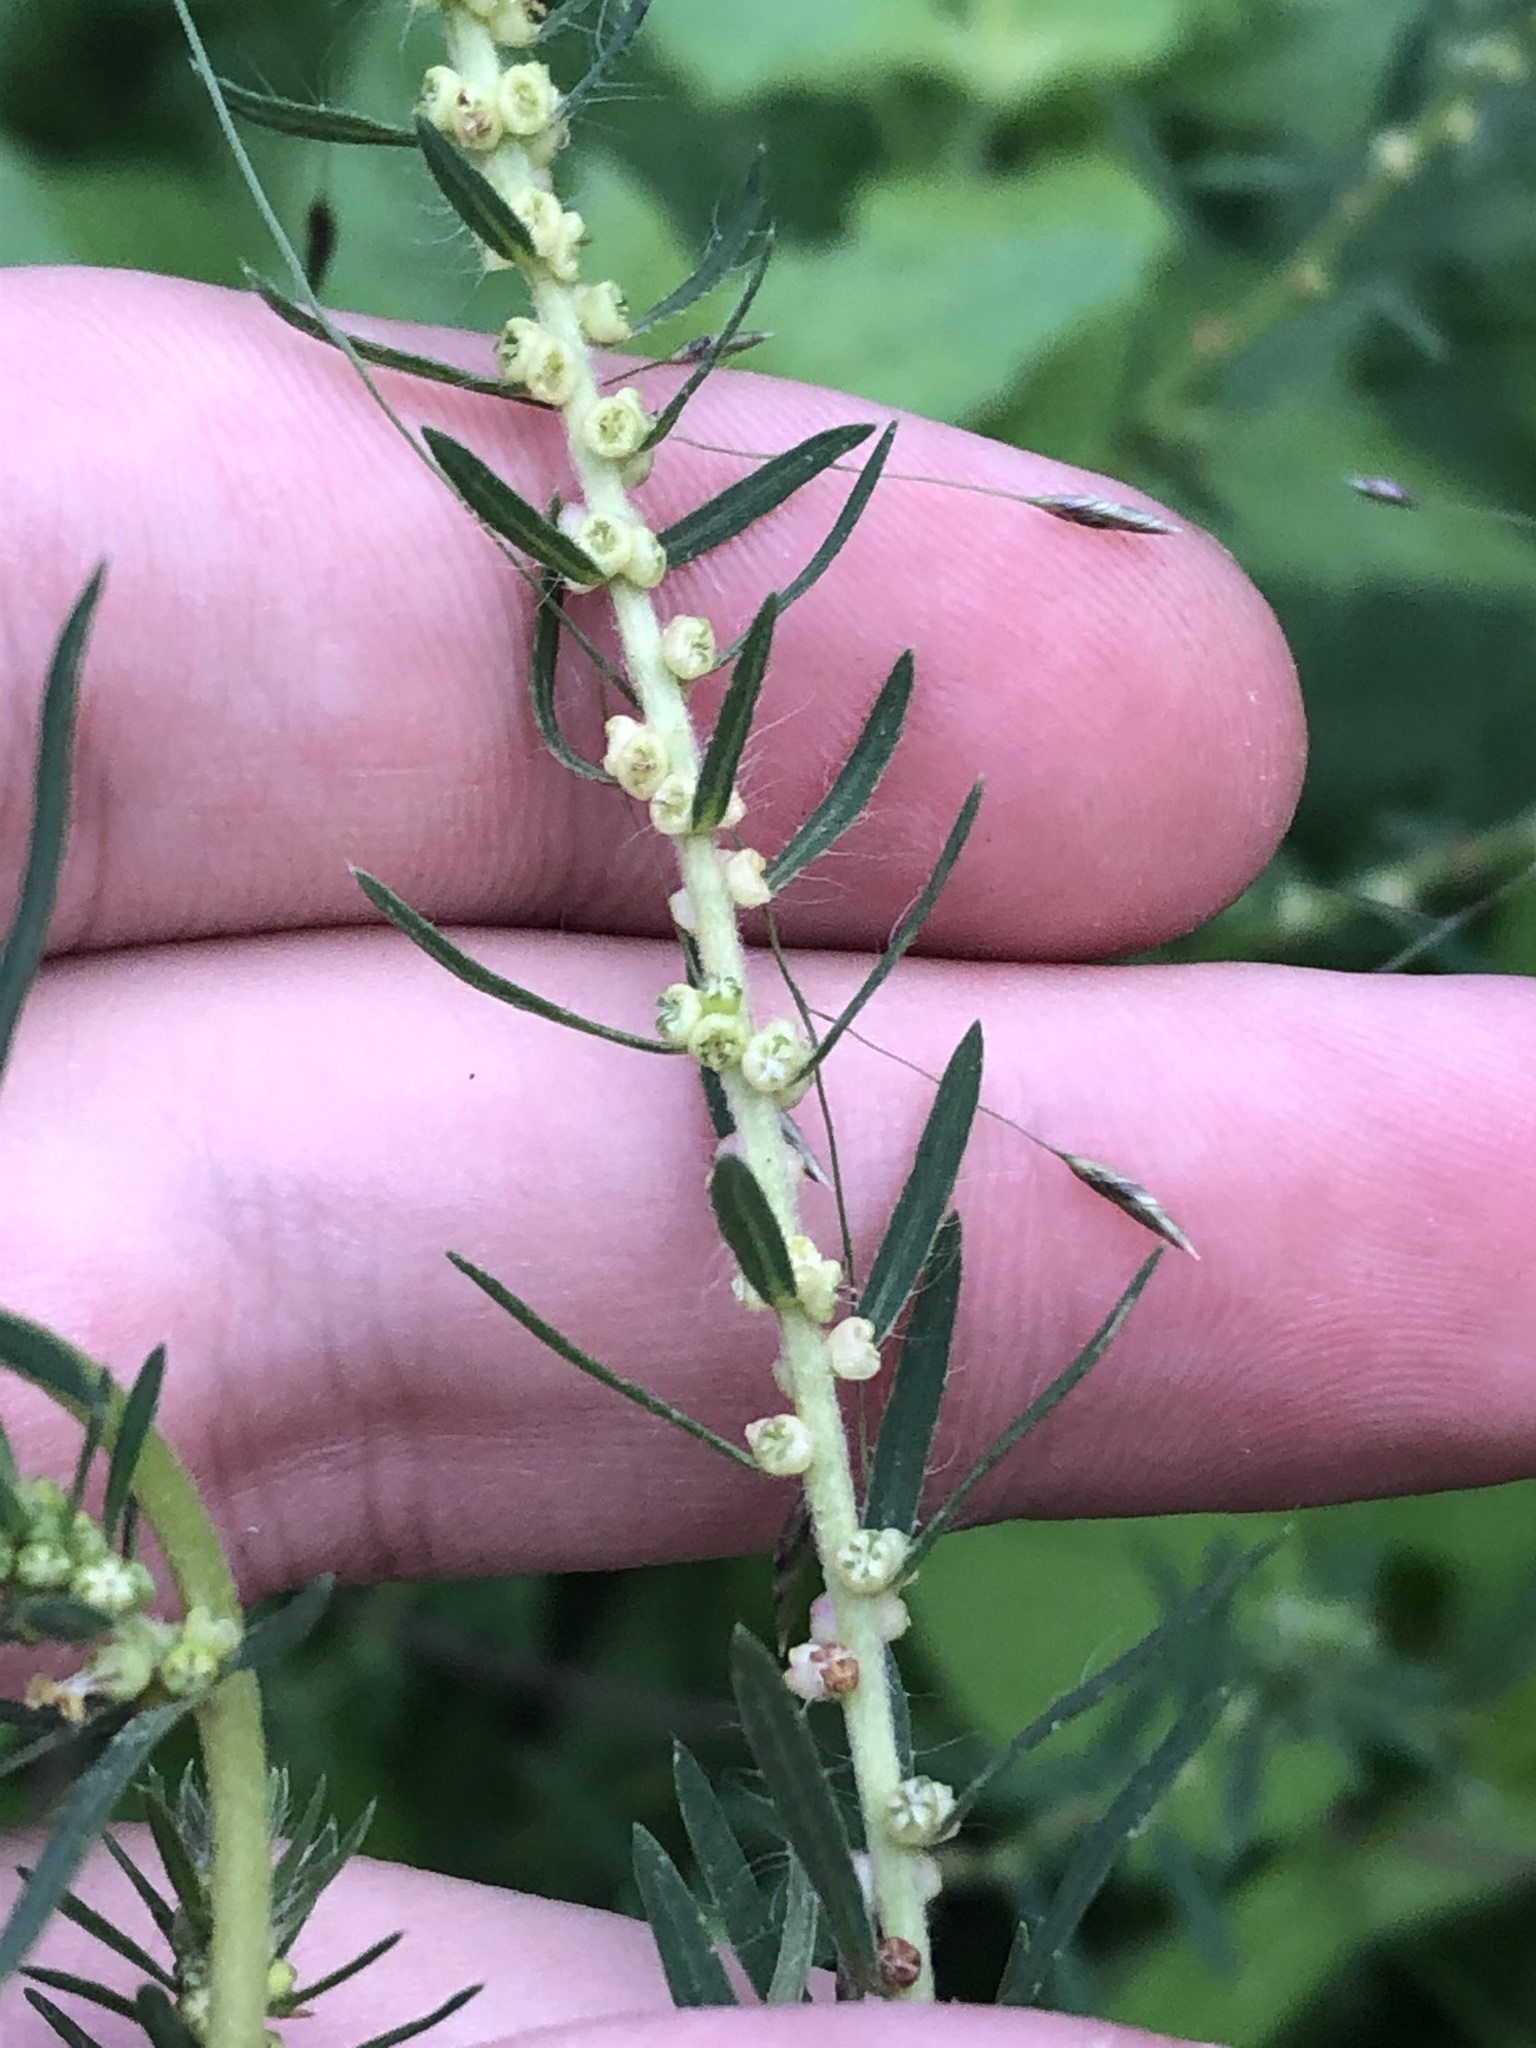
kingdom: Plantae
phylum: Tracheophyta
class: Magnoliopsida
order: Caryophyllales
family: Amaranthaceae
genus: Bassia
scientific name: Bassia scoparia
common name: Belvedere
